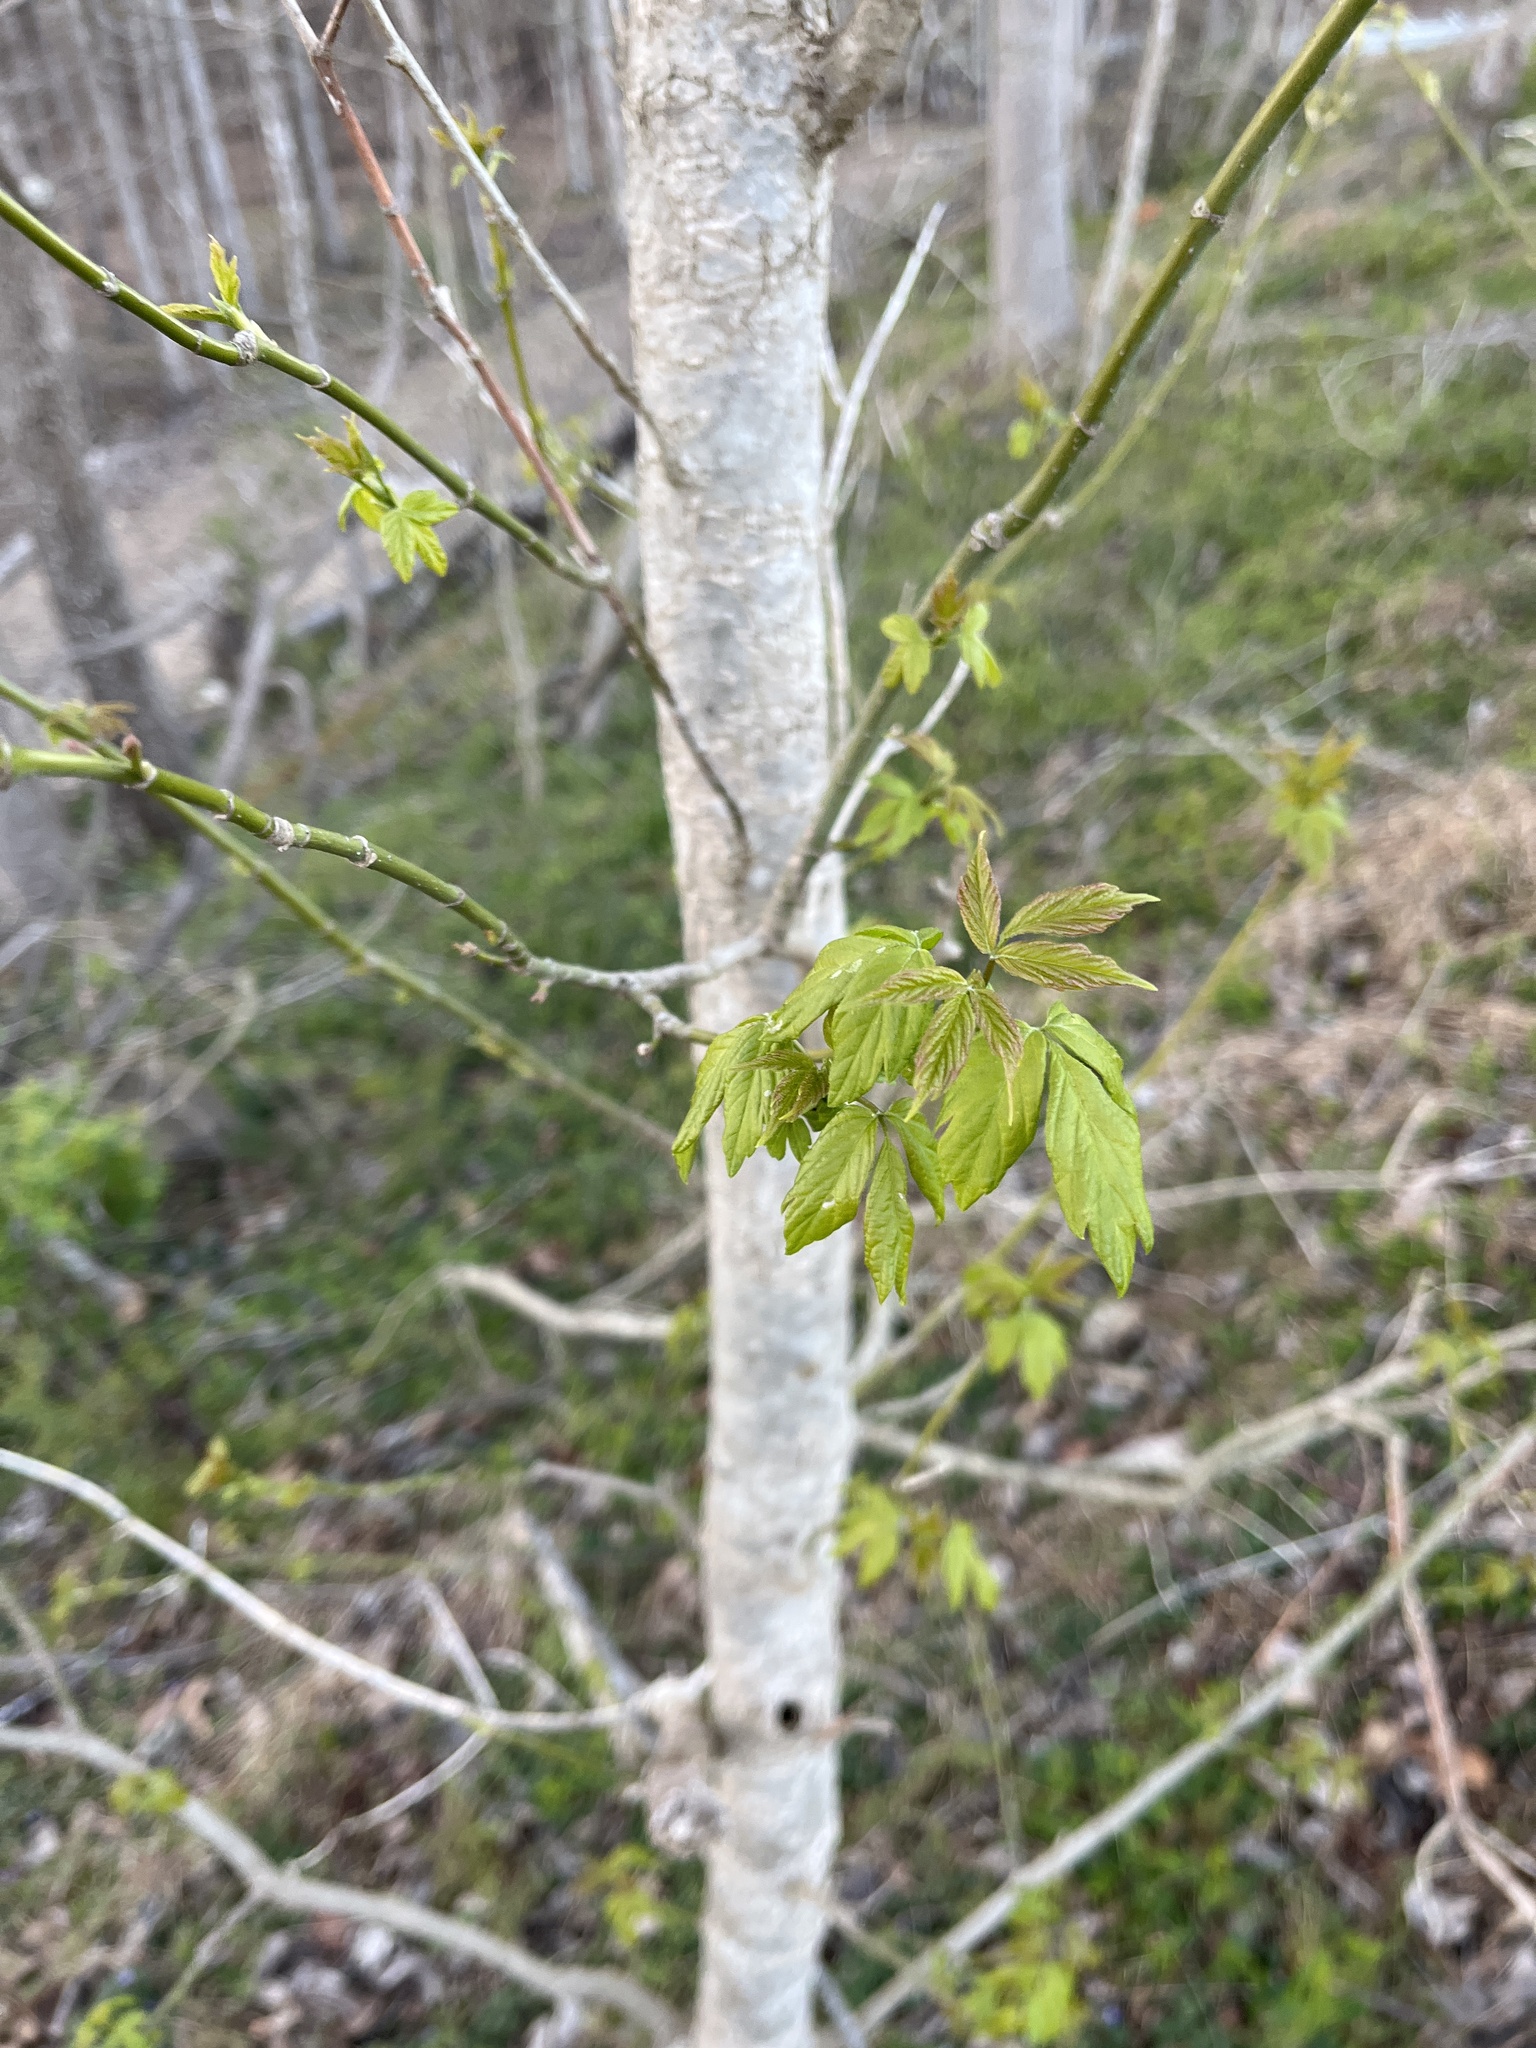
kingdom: Plantae
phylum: Tracheophyta
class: Magnoliopsida
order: Sapindales
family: Sapindaceae
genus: Acer
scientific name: Acer negundo
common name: Ashleaf maple
